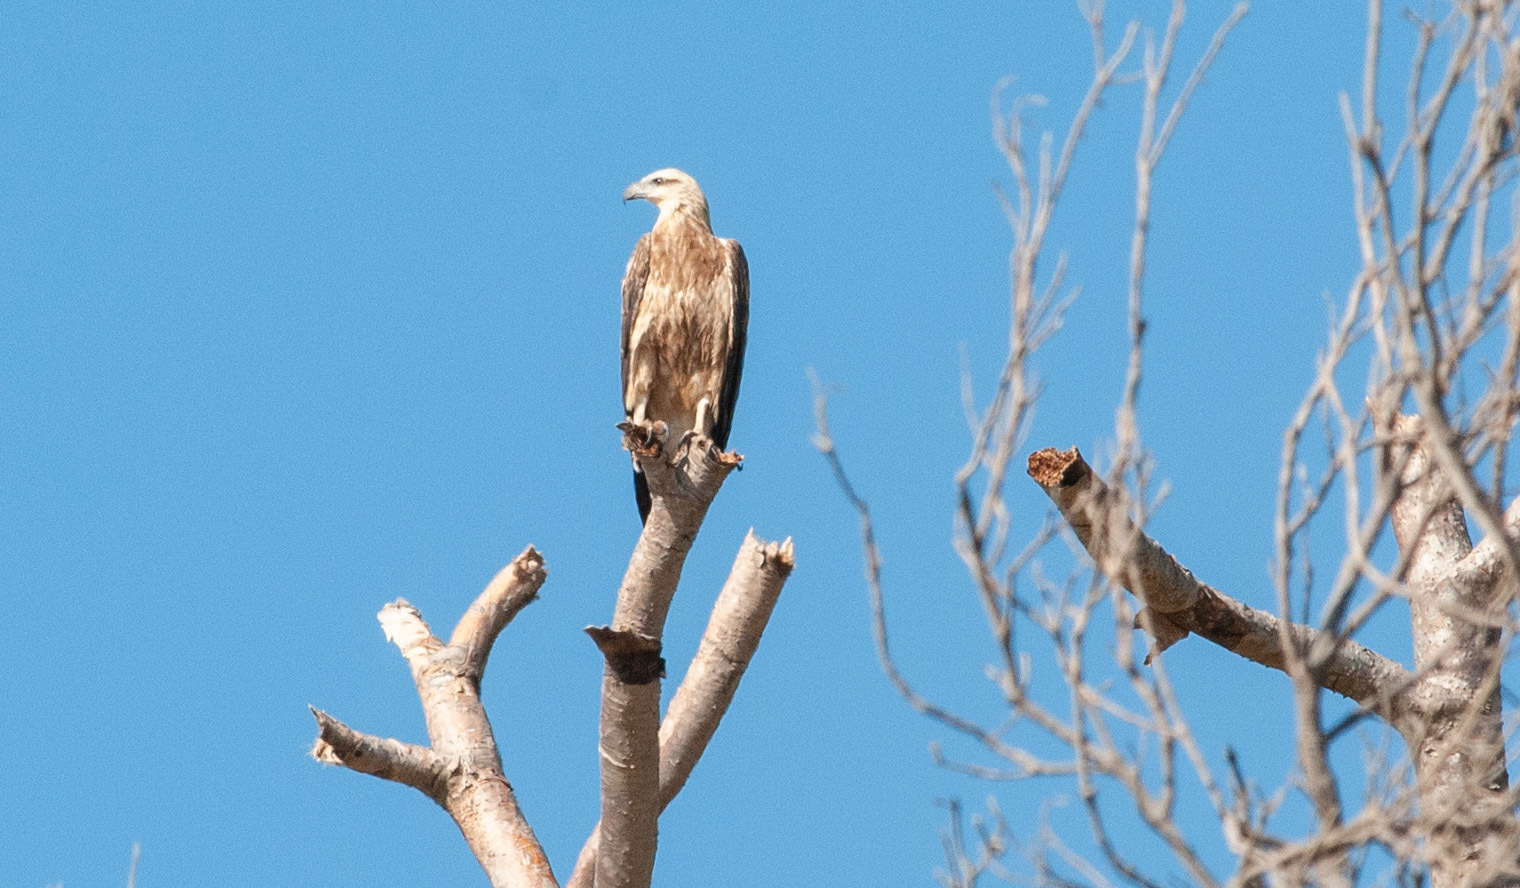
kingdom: Animalia
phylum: Chordata
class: Aves
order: Accipitriformes
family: Accipitridae
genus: Haliaeetus
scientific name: Haliaeetus leucogaster
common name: White-bellied sea eagle
